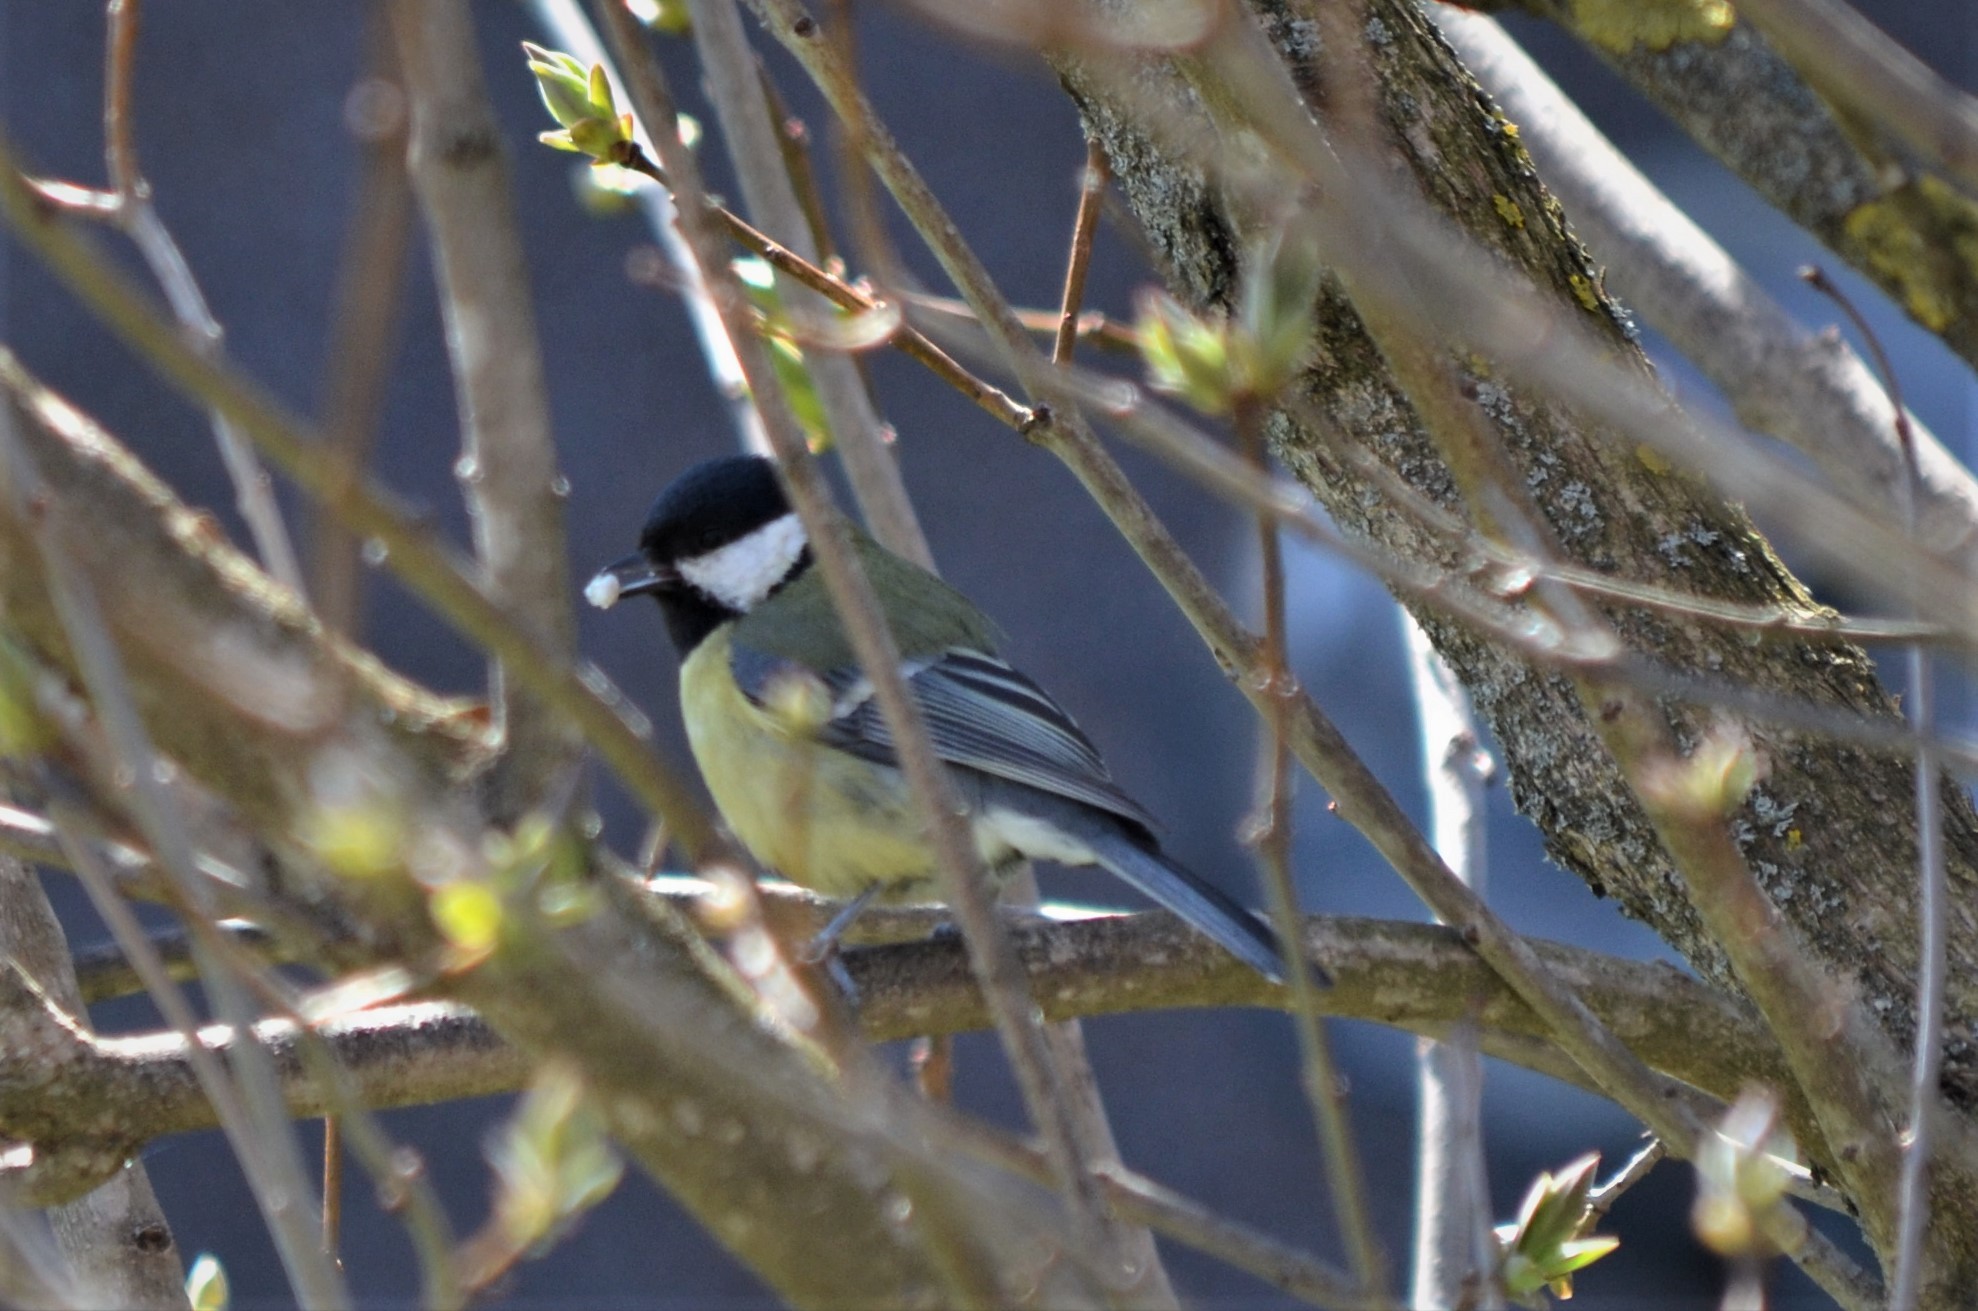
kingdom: Animalia
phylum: Chordata
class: Aves
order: Passeriformes
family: Paridae
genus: Parus
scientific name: Parus major
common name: Great tit
